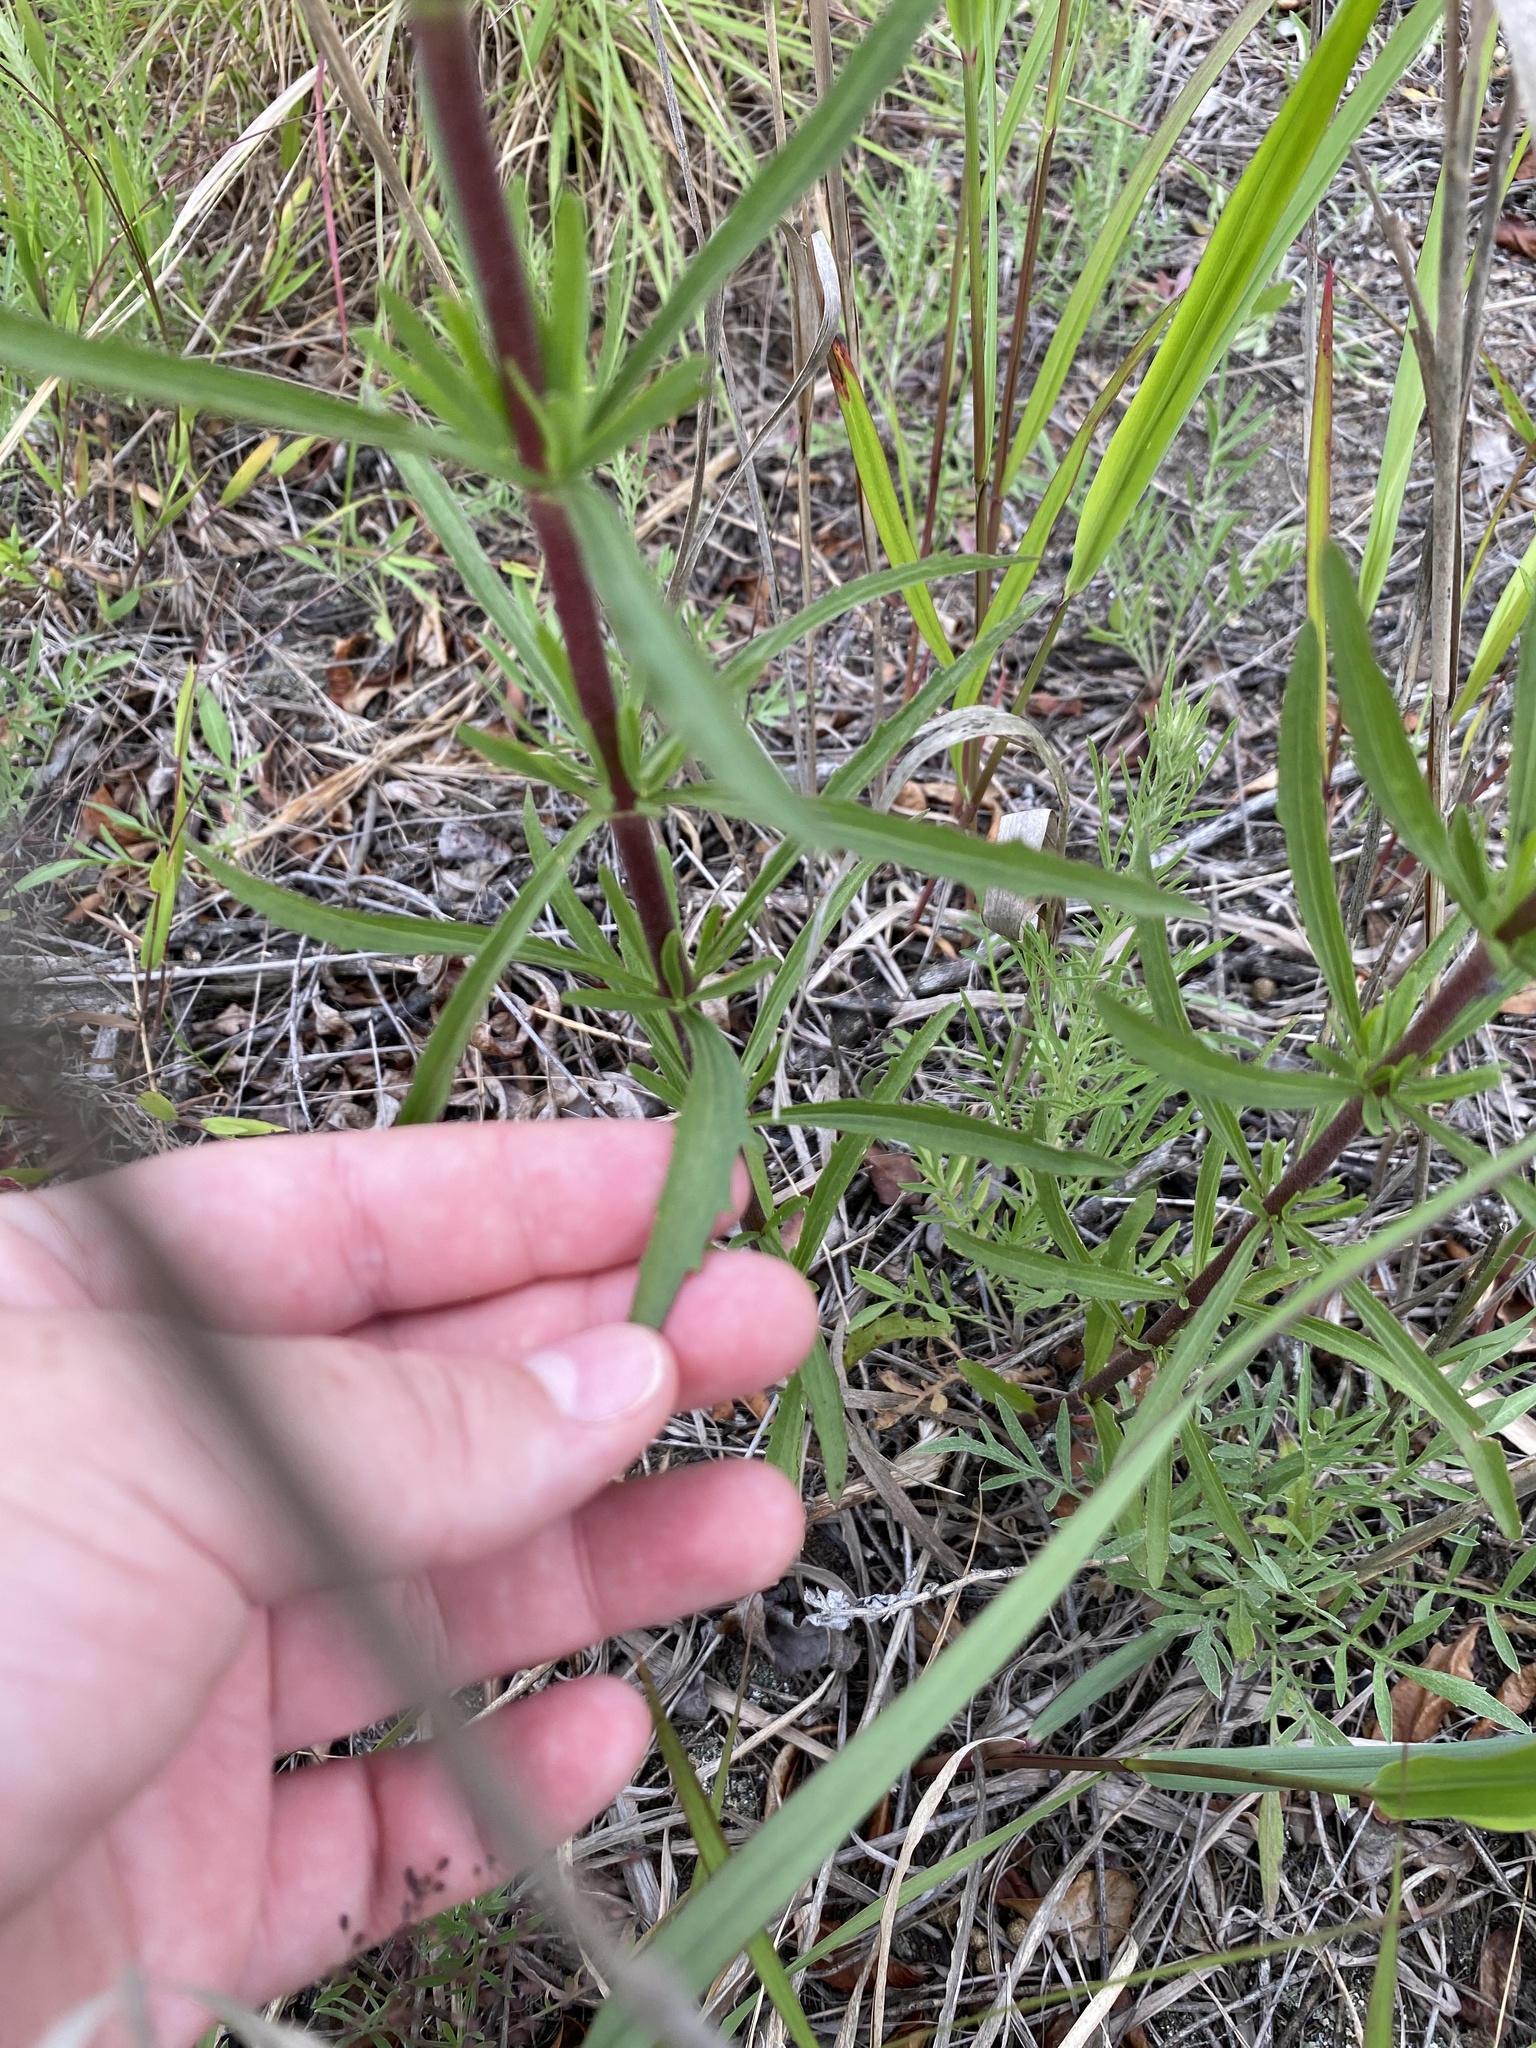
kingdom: Plantae
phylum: Tracheophyta
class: Magnoliopsida
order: Asterales
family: Asteraceae
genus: Eupatorium
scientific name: Eupatorium torreyanum
